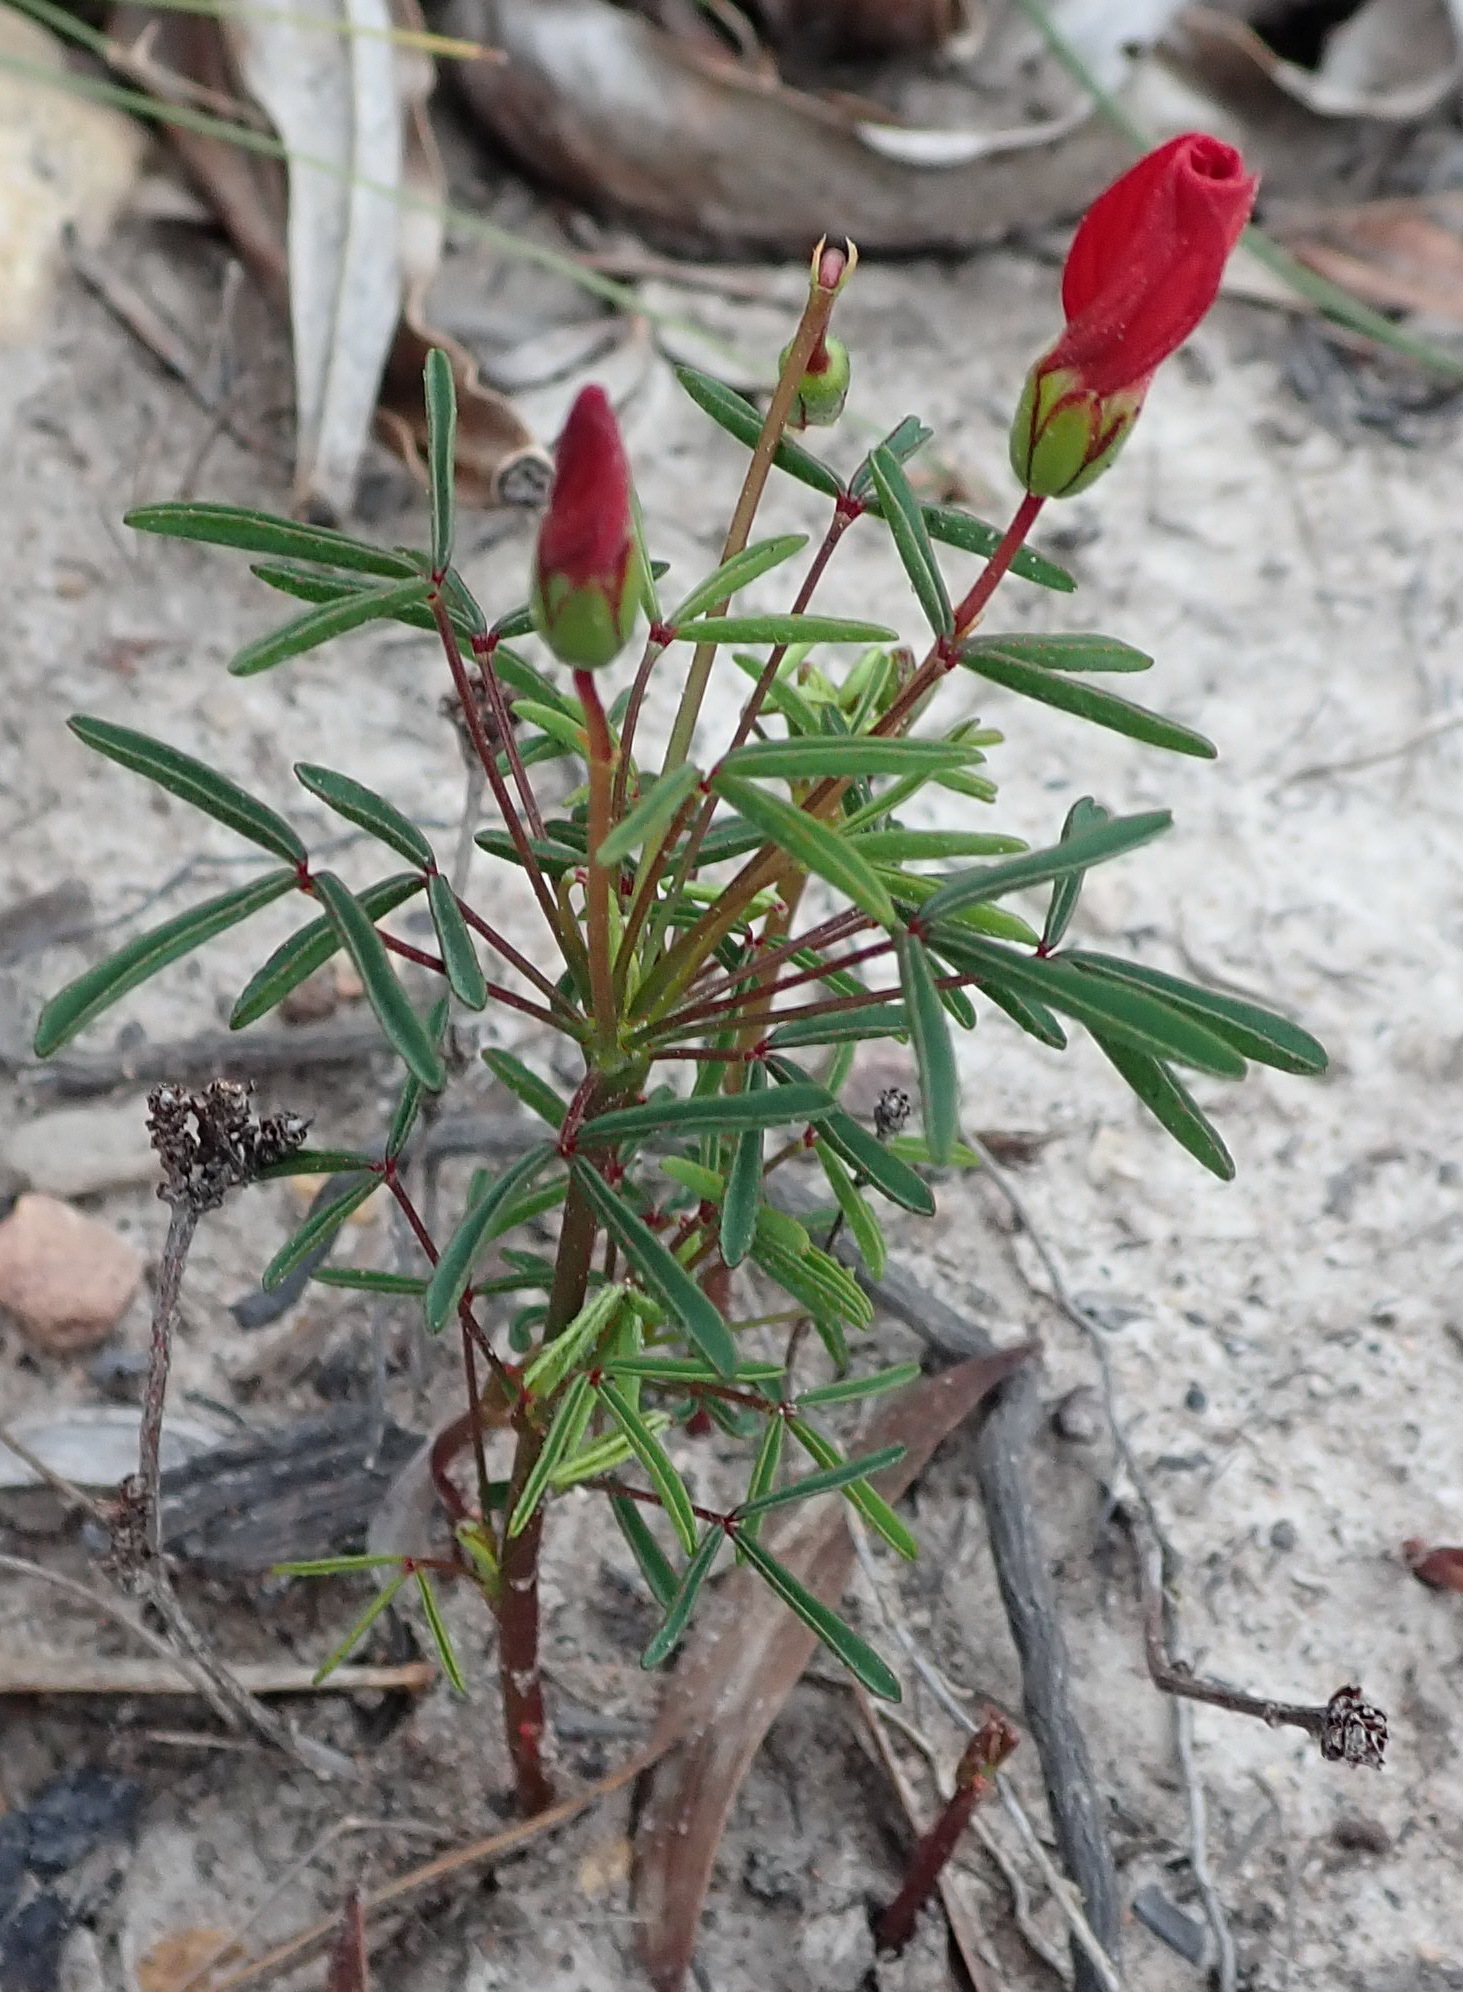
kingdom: Plantae
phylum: Tracheophyta
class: Magnoliopsida
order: Oxalidales
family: Oxalidaceae
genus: Oxalis
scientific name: Oxalis pendulifolia
